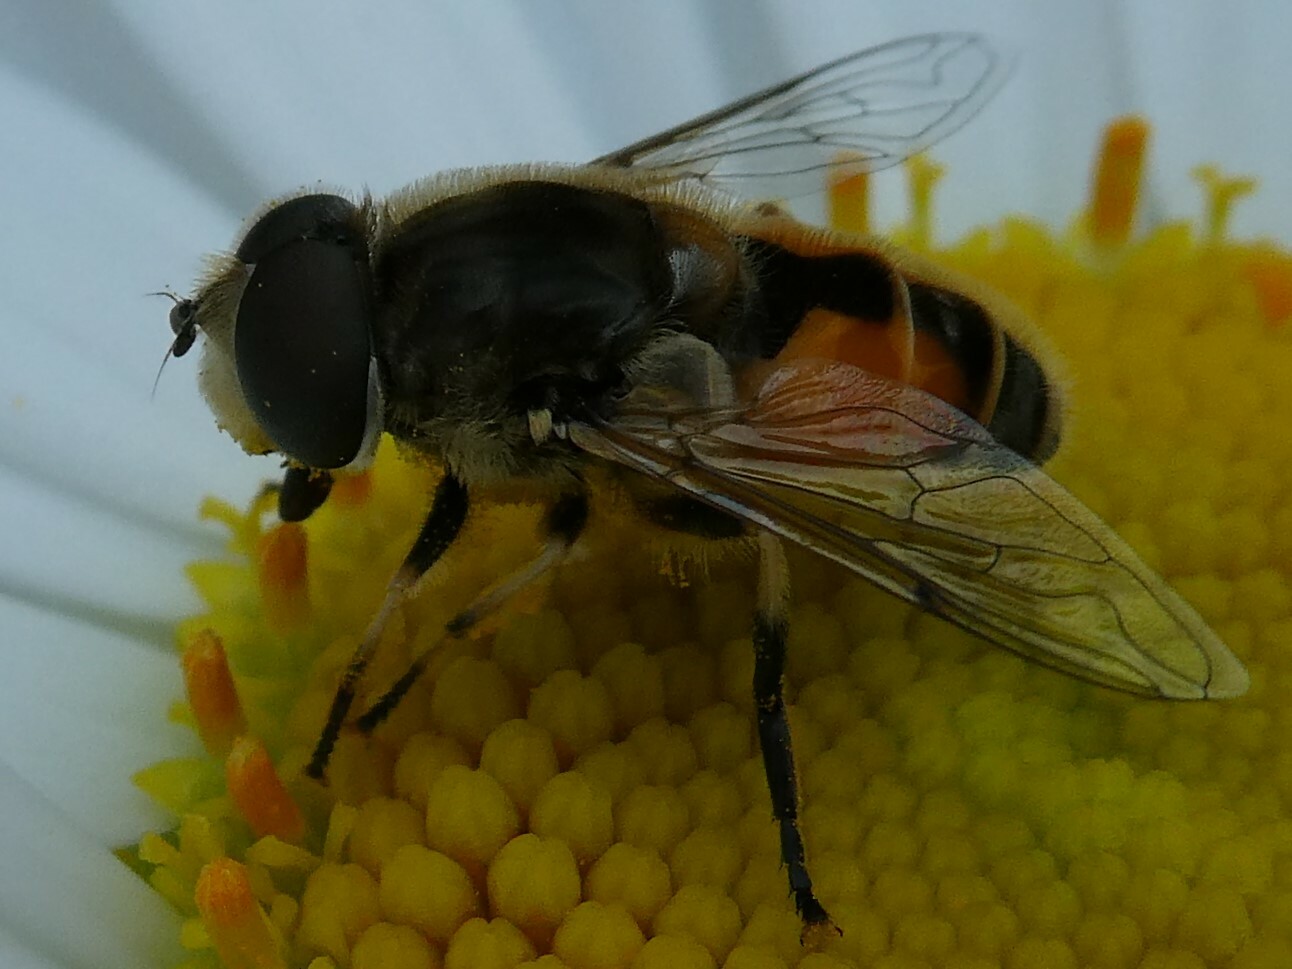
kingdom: Animalia
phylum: Arthropoda
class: Insecta
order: Diptera
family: Syrphidae
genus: Eristalis
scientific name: Eristalis arbustorum
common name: Hover fly
